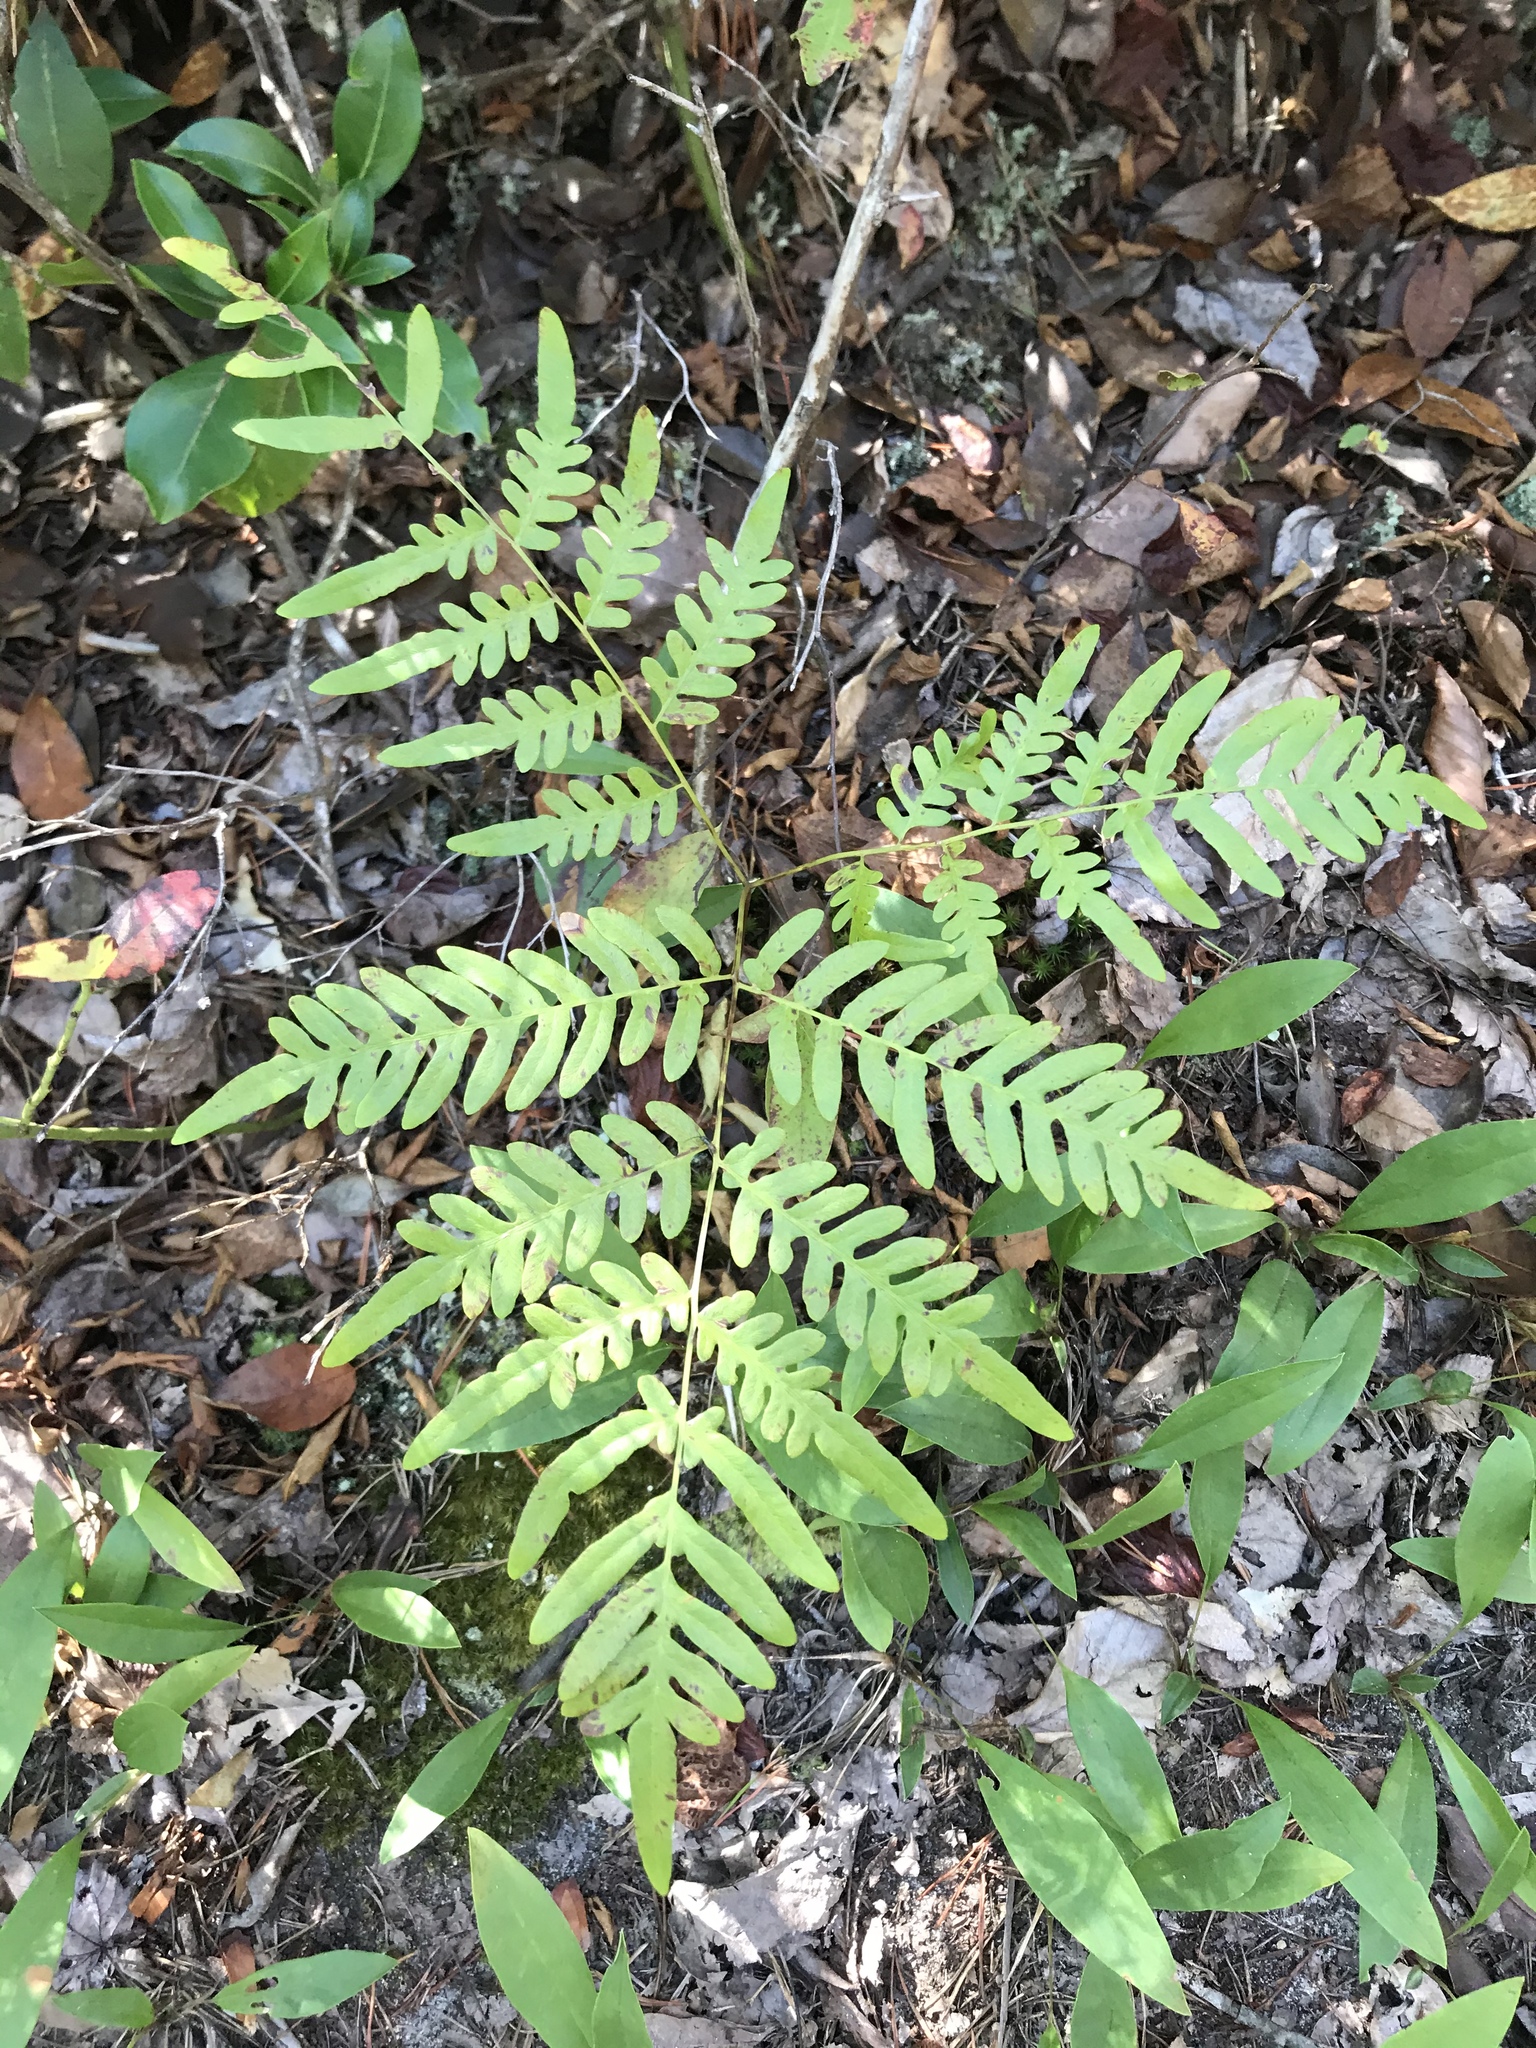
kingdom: Plantae
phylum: Tracheophyta
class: Polypodiopsida
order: Polypodiales
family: Dennstaedtiaceae
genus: Pteridium
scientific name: Pteridium aquilinum
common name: Bracken
